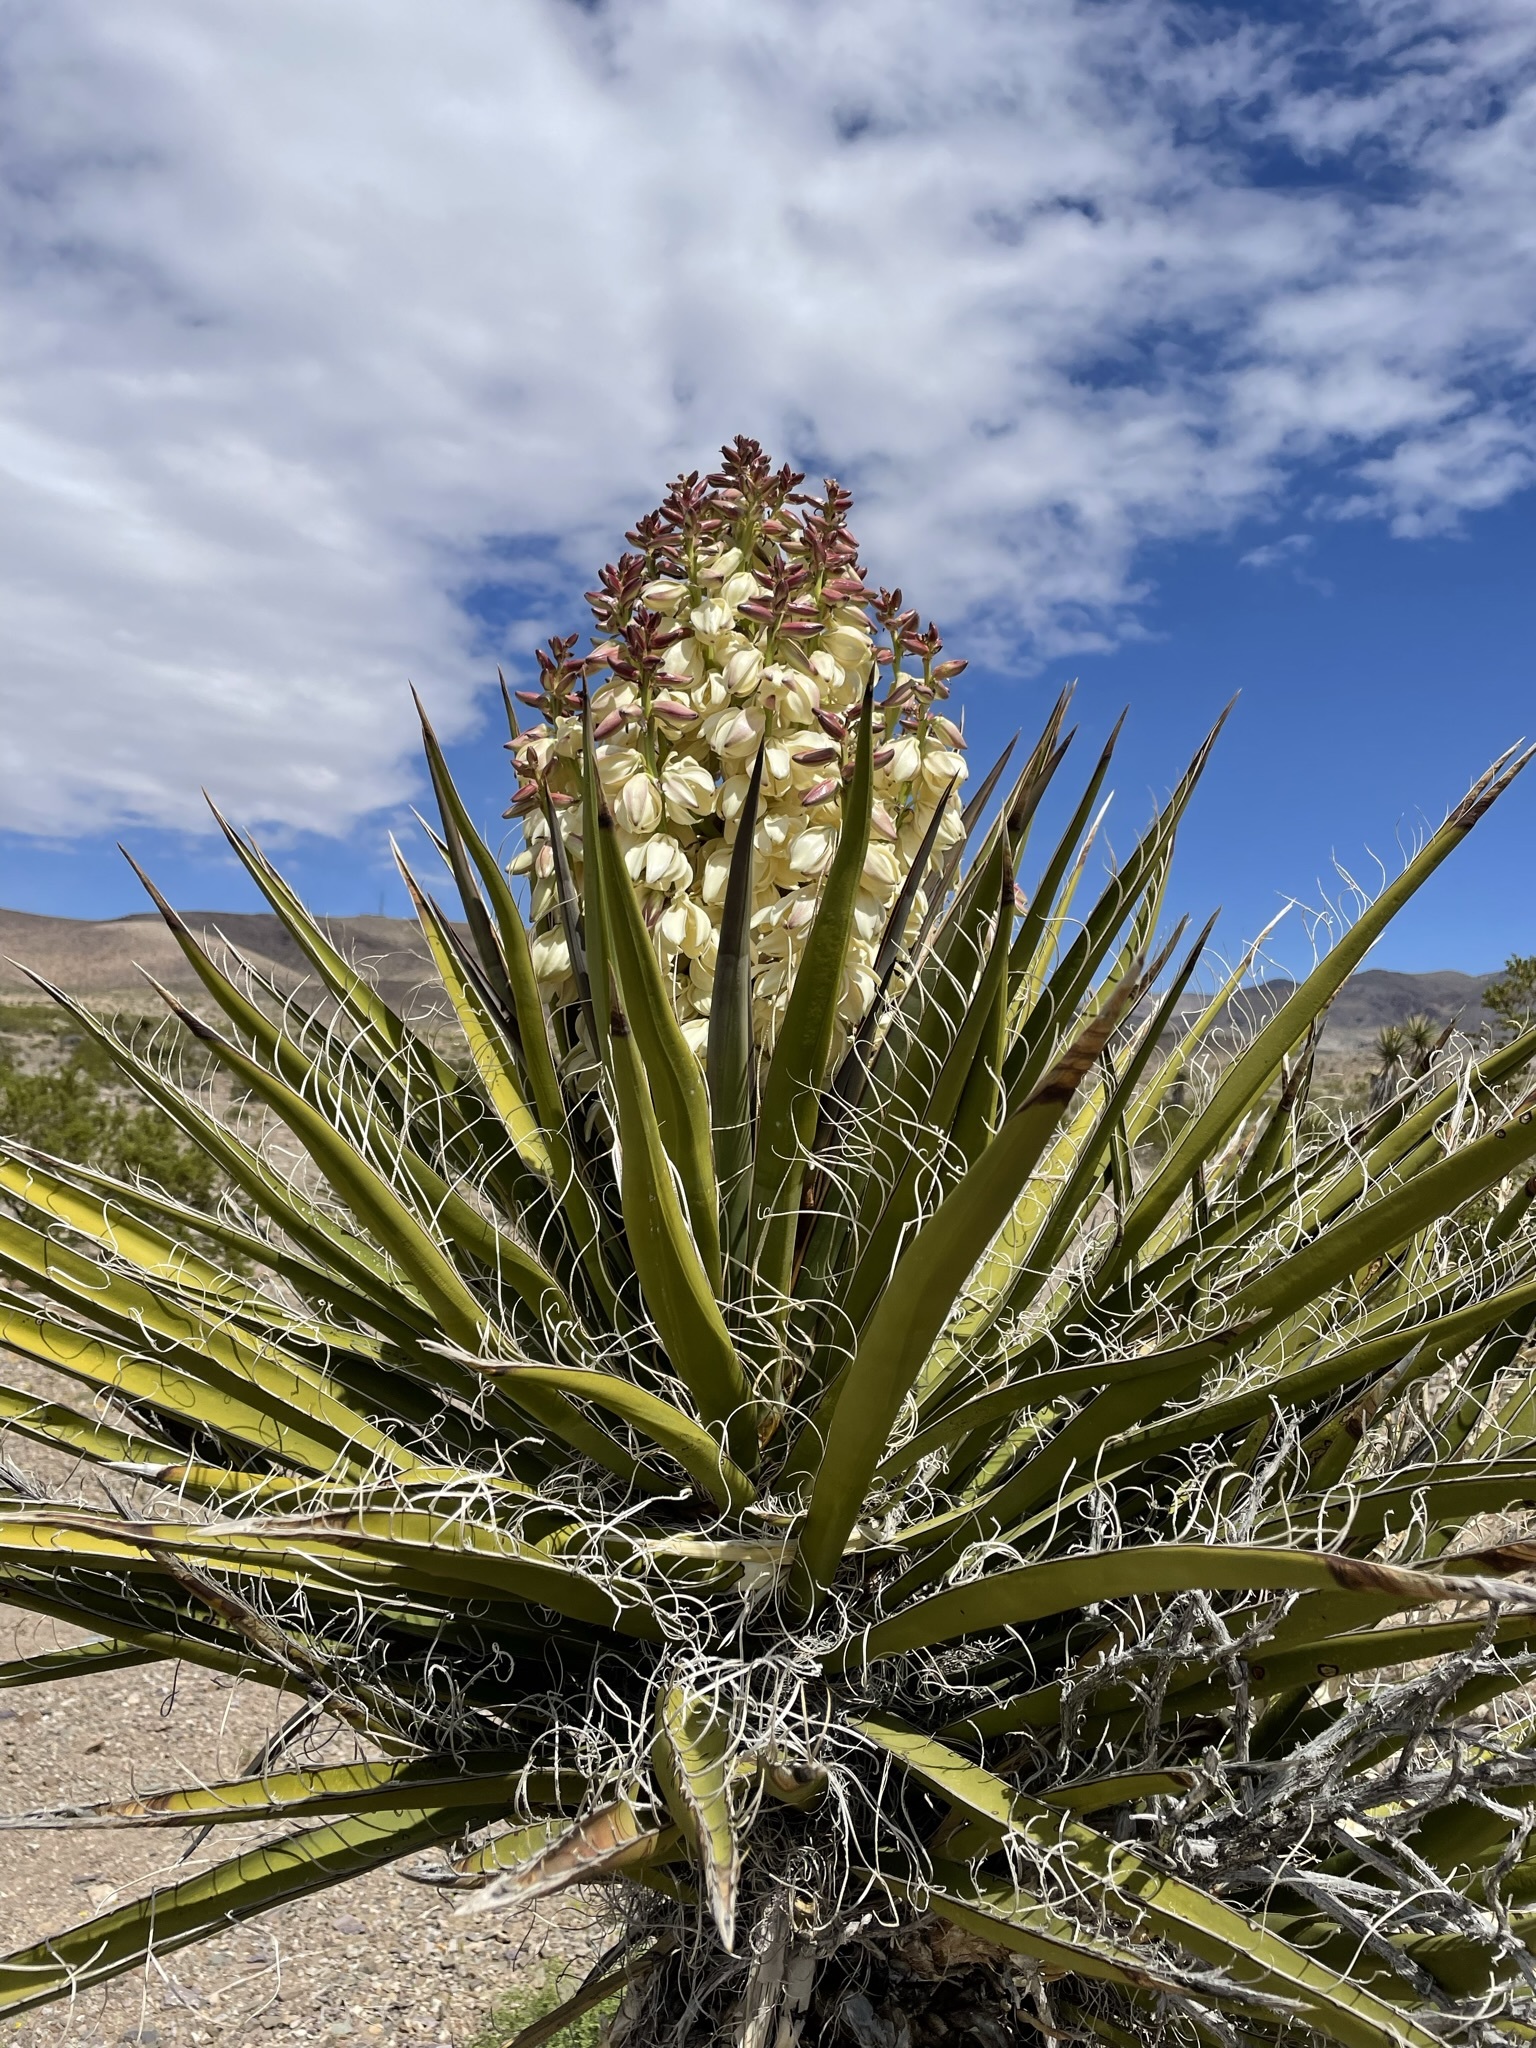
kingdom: Plantae
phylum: Tracheophyta
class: Liliopsida
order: Asparagales
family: Asparagaceae
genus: Yucca
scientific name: Yucca schidigera
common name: Mojave yucca
